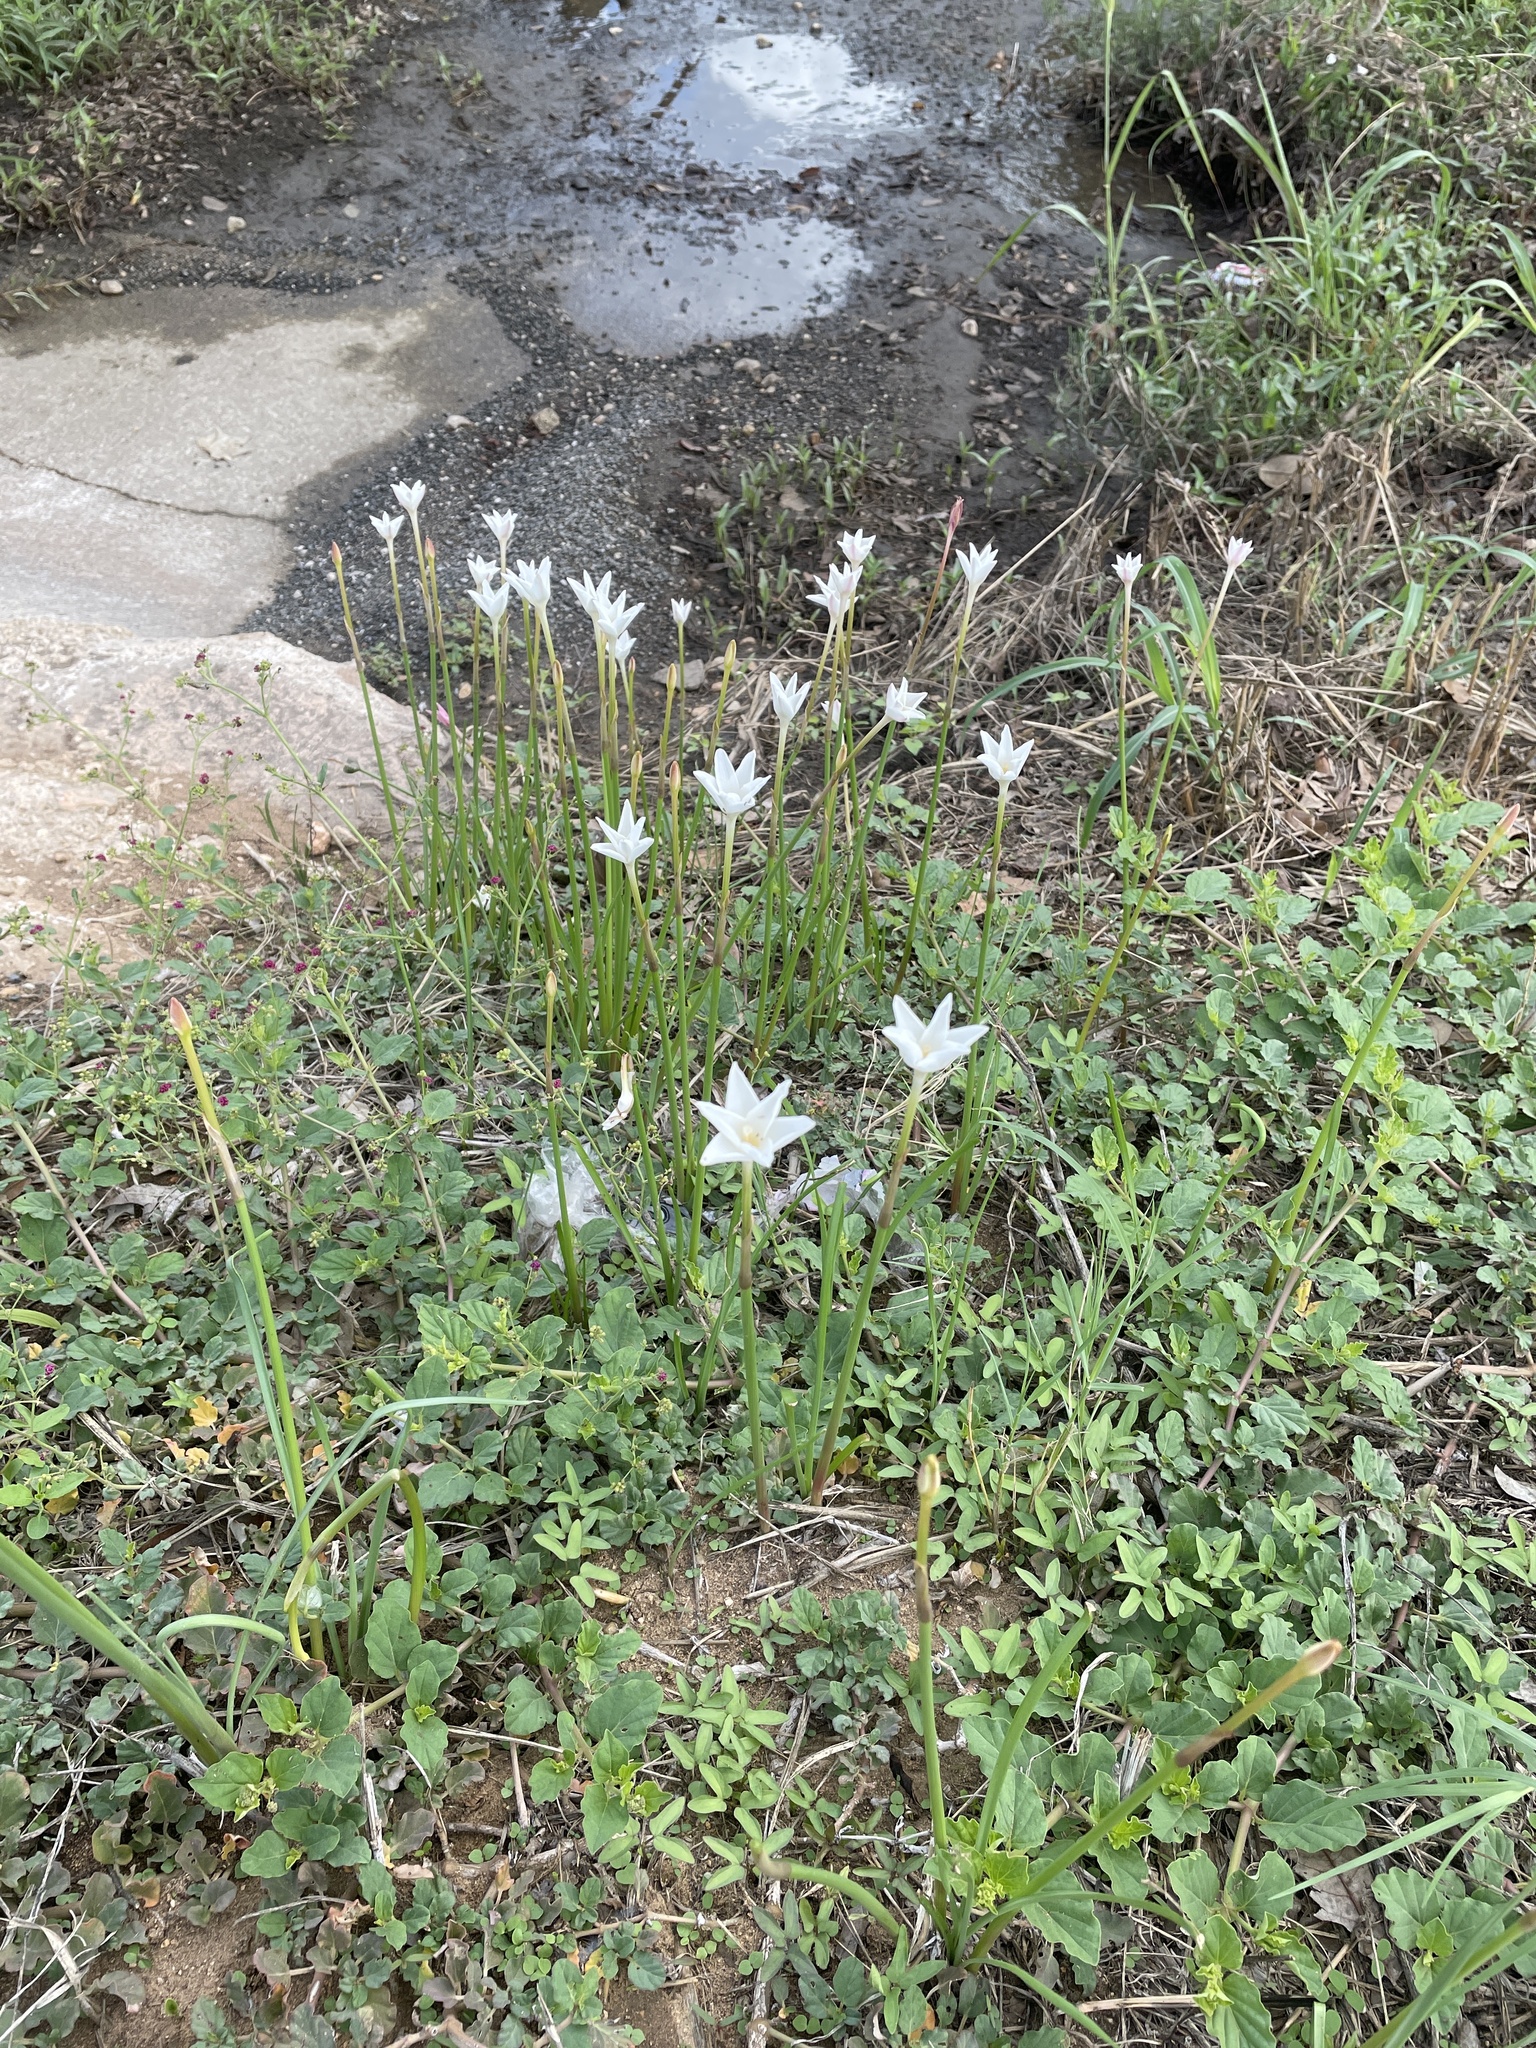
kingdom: Plantae
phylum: Tracheophyta
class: Liliopsida
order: Asparagales
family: Amaryllidaceae
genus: Zephyranthes
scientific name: Zephyranthes chlorosolen
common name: Evening rain-lily
